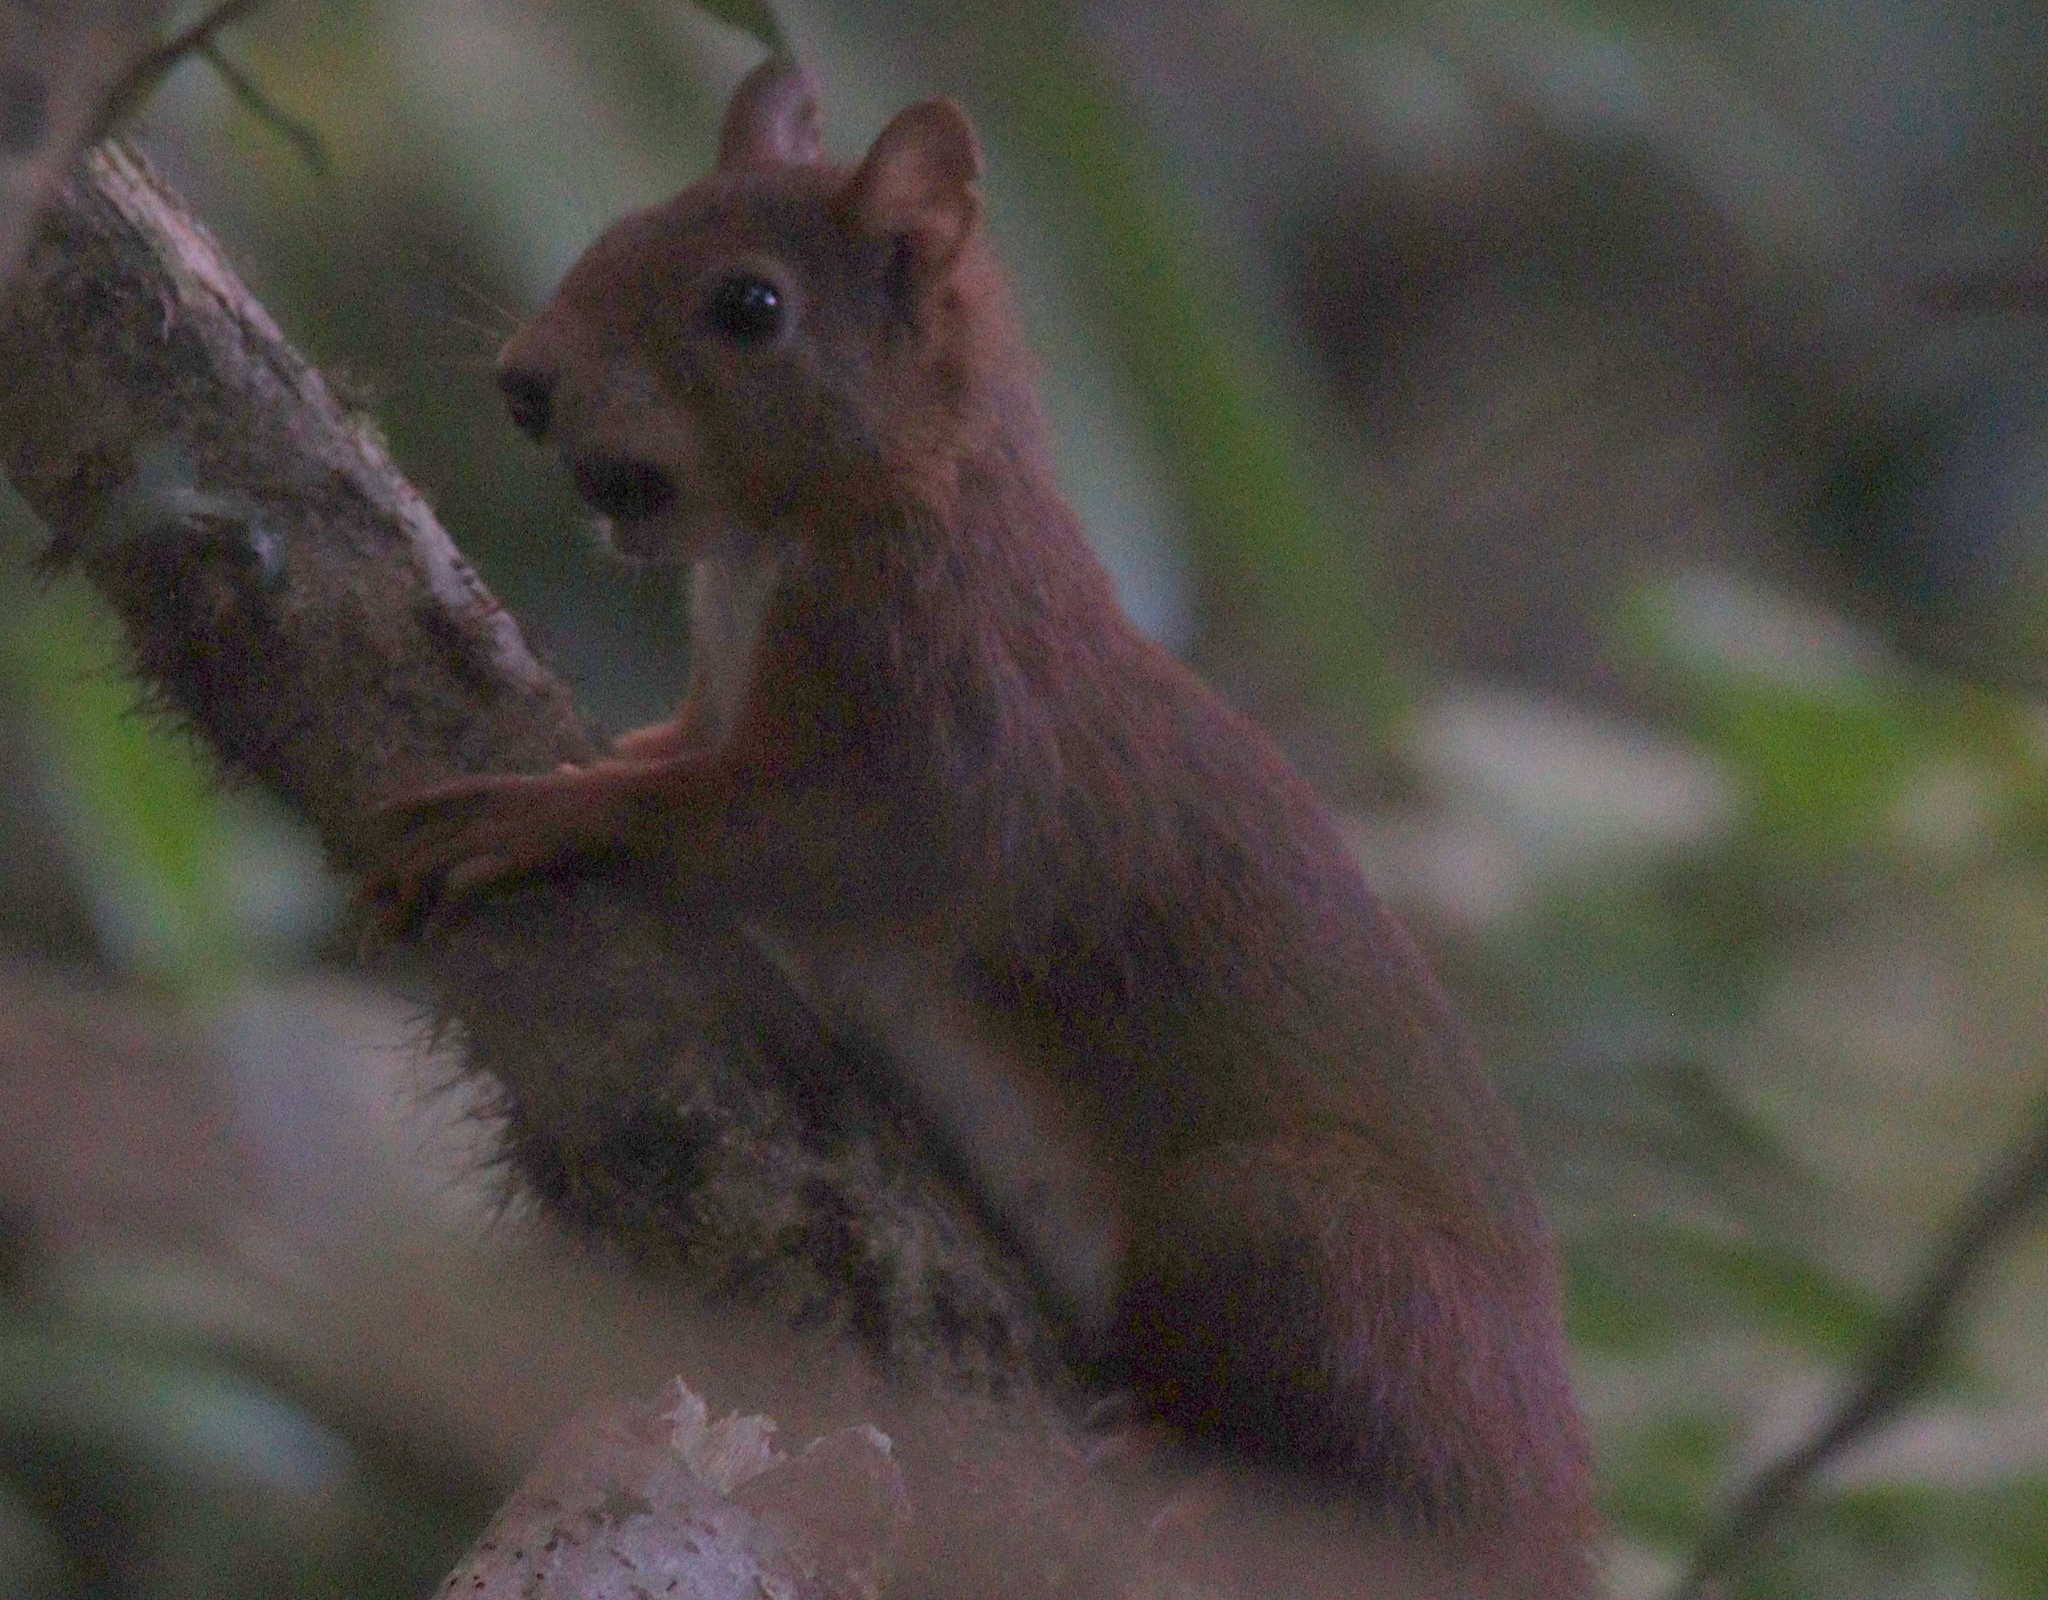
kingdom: Animalia
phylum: Chordata
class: Mammalia
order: Rodentia
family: Sciuridae
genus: Sciurus
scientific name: Sciurus vulgaris
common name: Eurasian red squirrel
